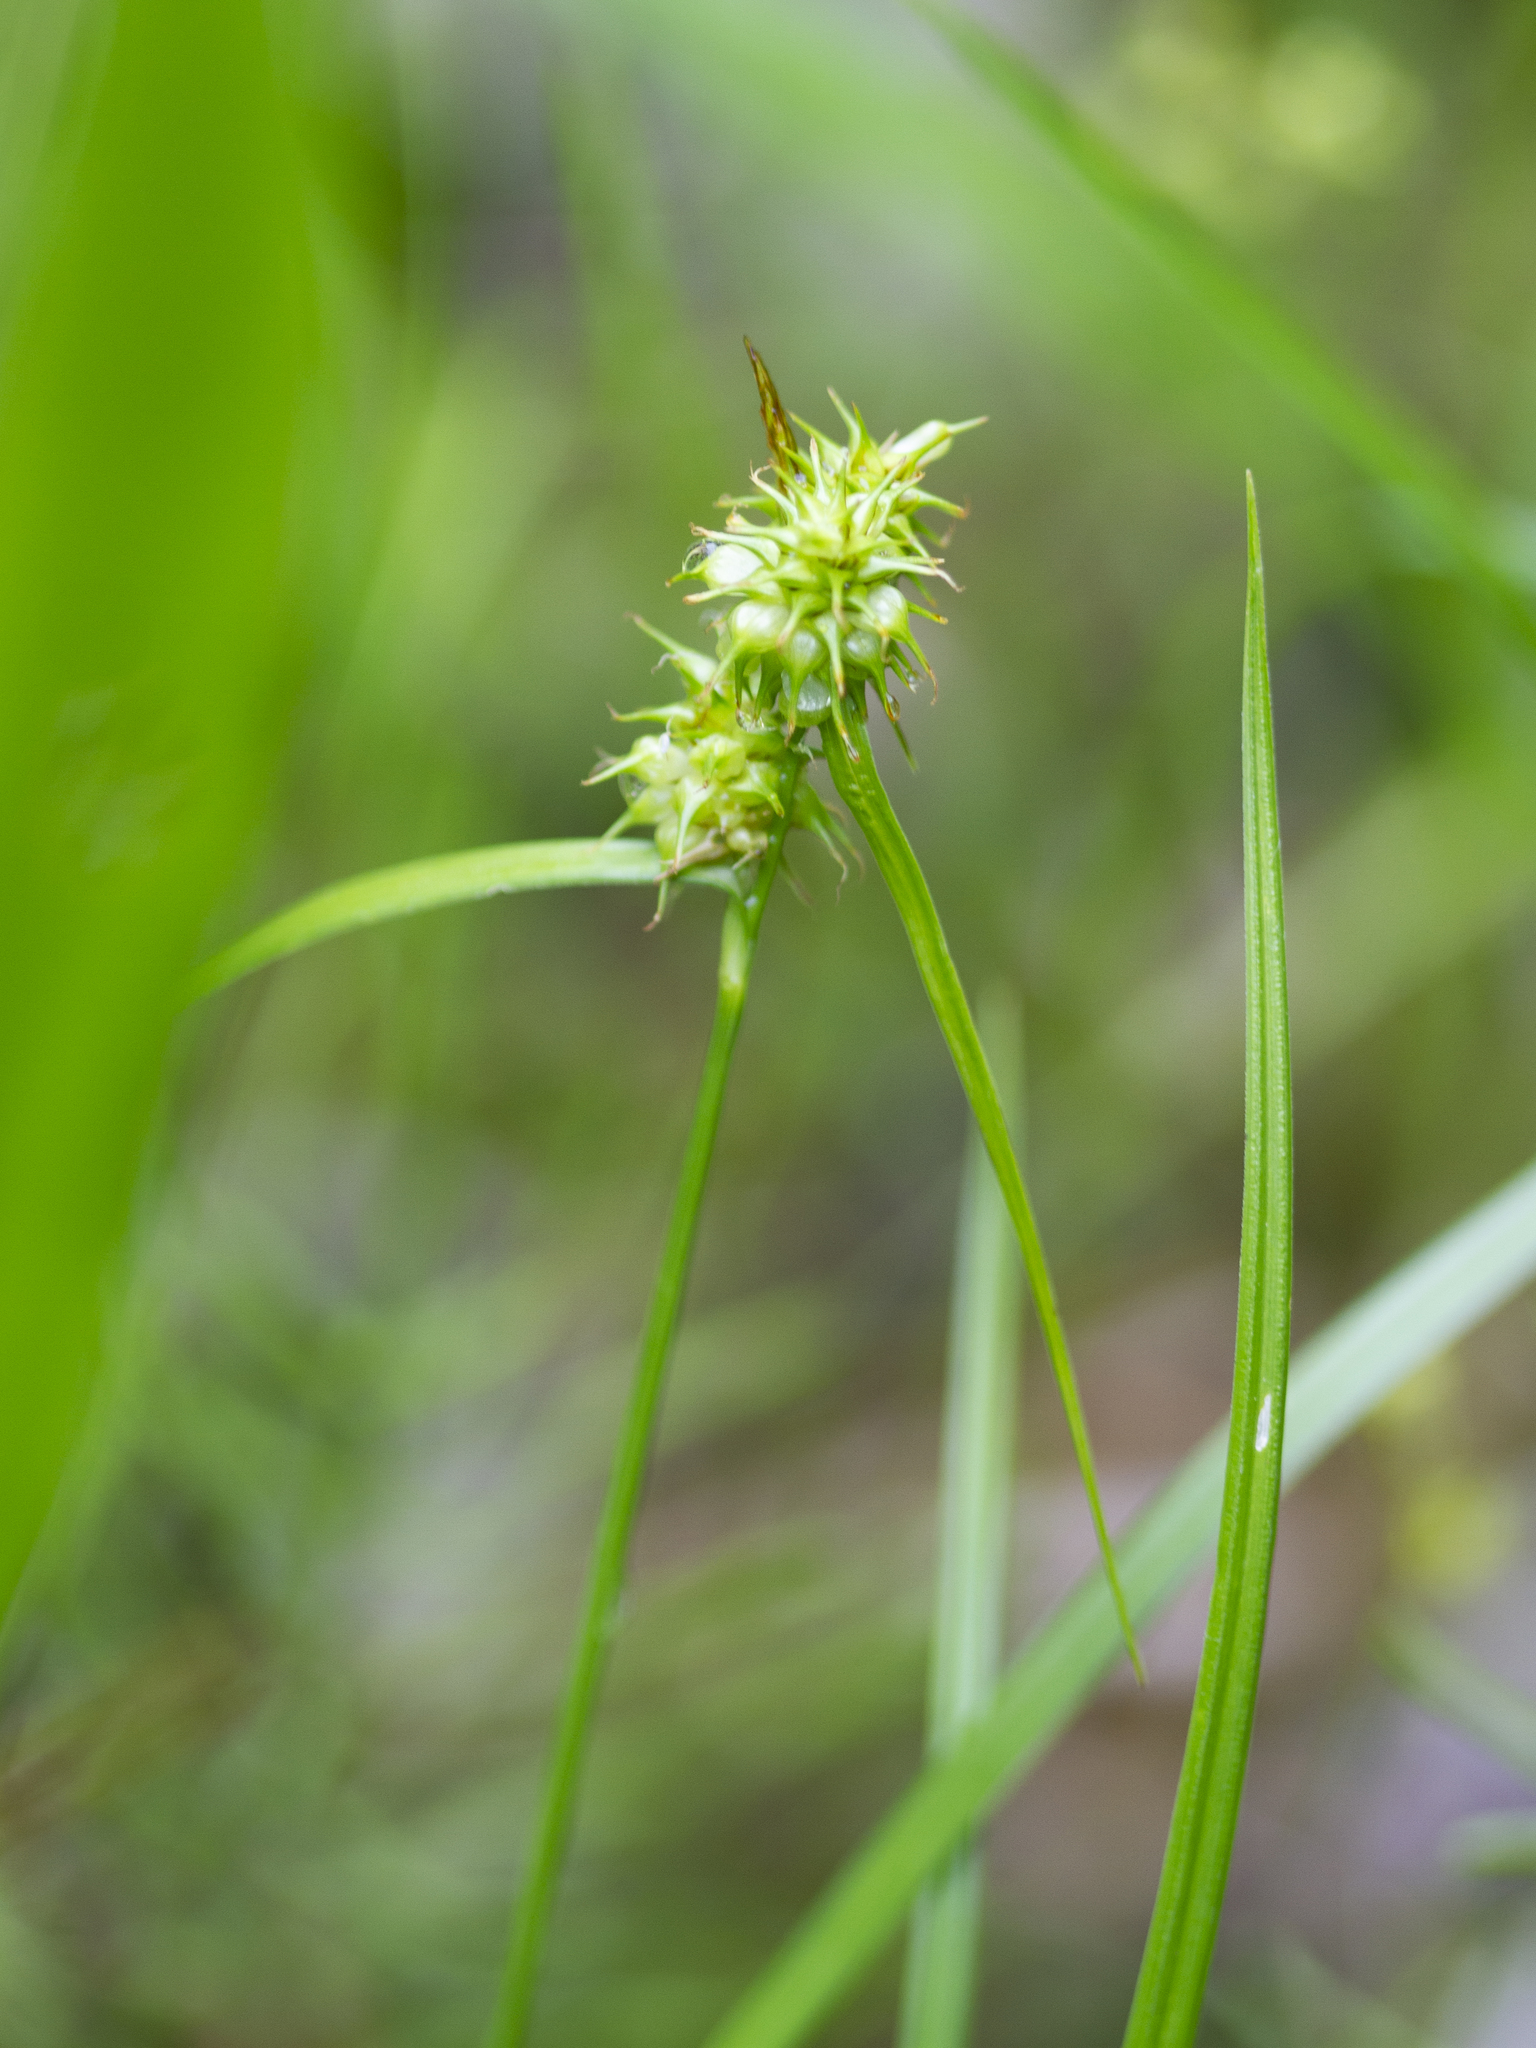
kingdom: Plantae
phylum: Tracheophyta
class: Liliopsida
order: Poales
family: Cyperaceae
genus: Carex
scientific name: Carex flava
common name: Large yellow-sedge
